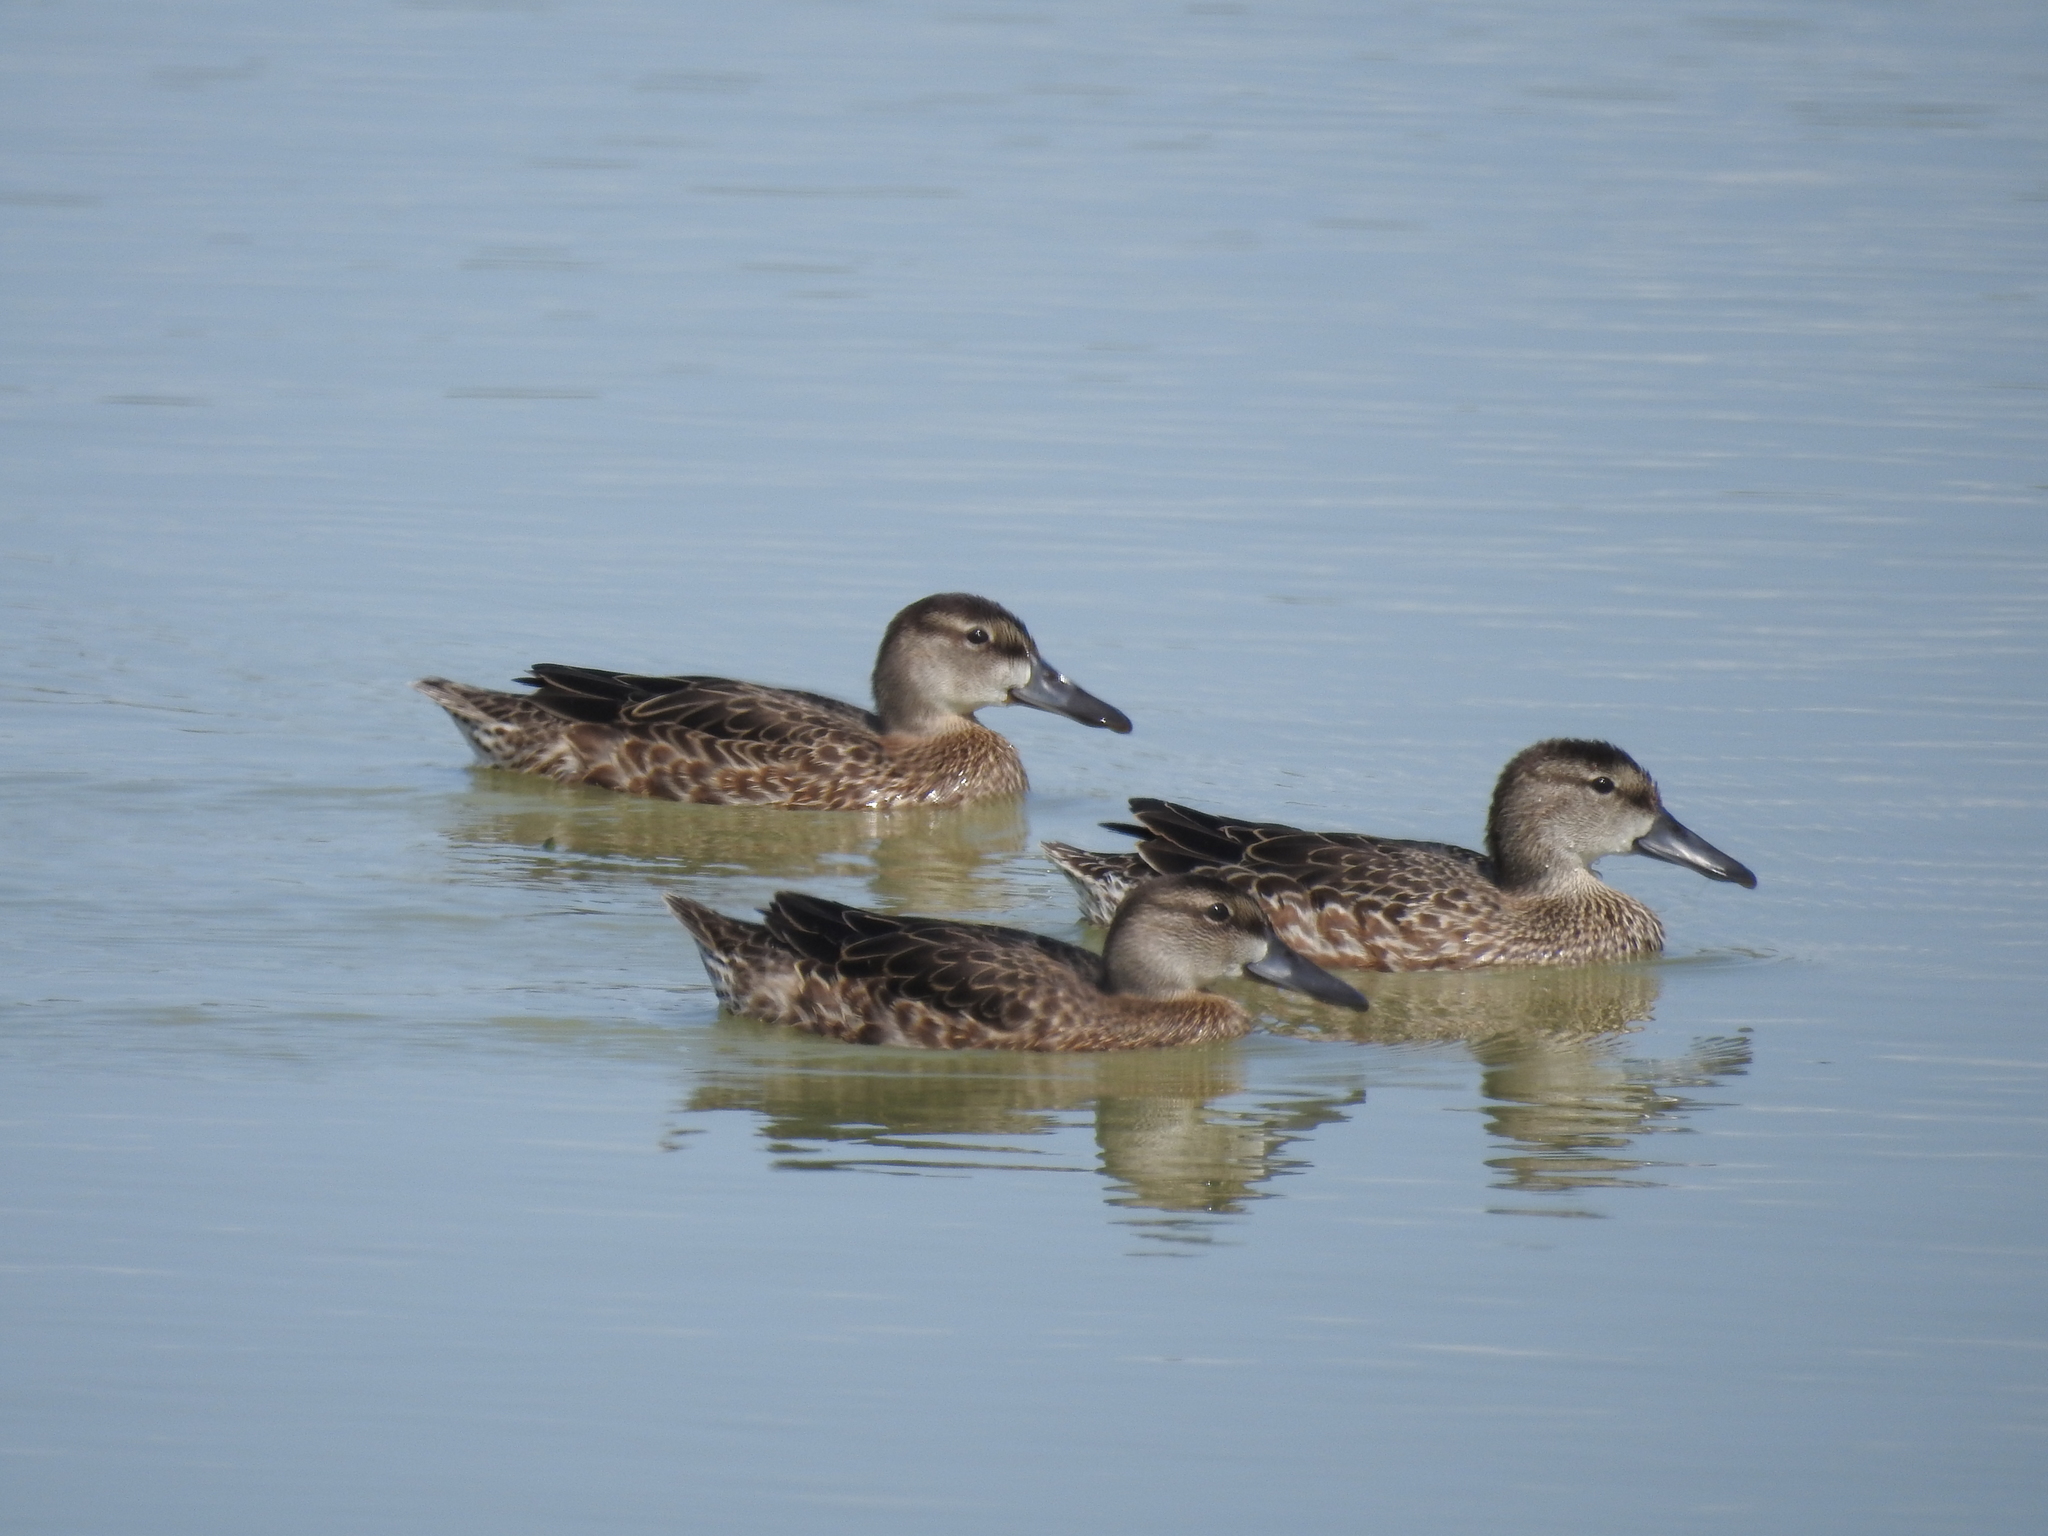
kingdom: Animalia
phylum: Chordata
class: Aves
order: Anseriformes
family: Anatidae
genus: Spatula
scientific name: Spatula discors
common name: Blue-winged teal
